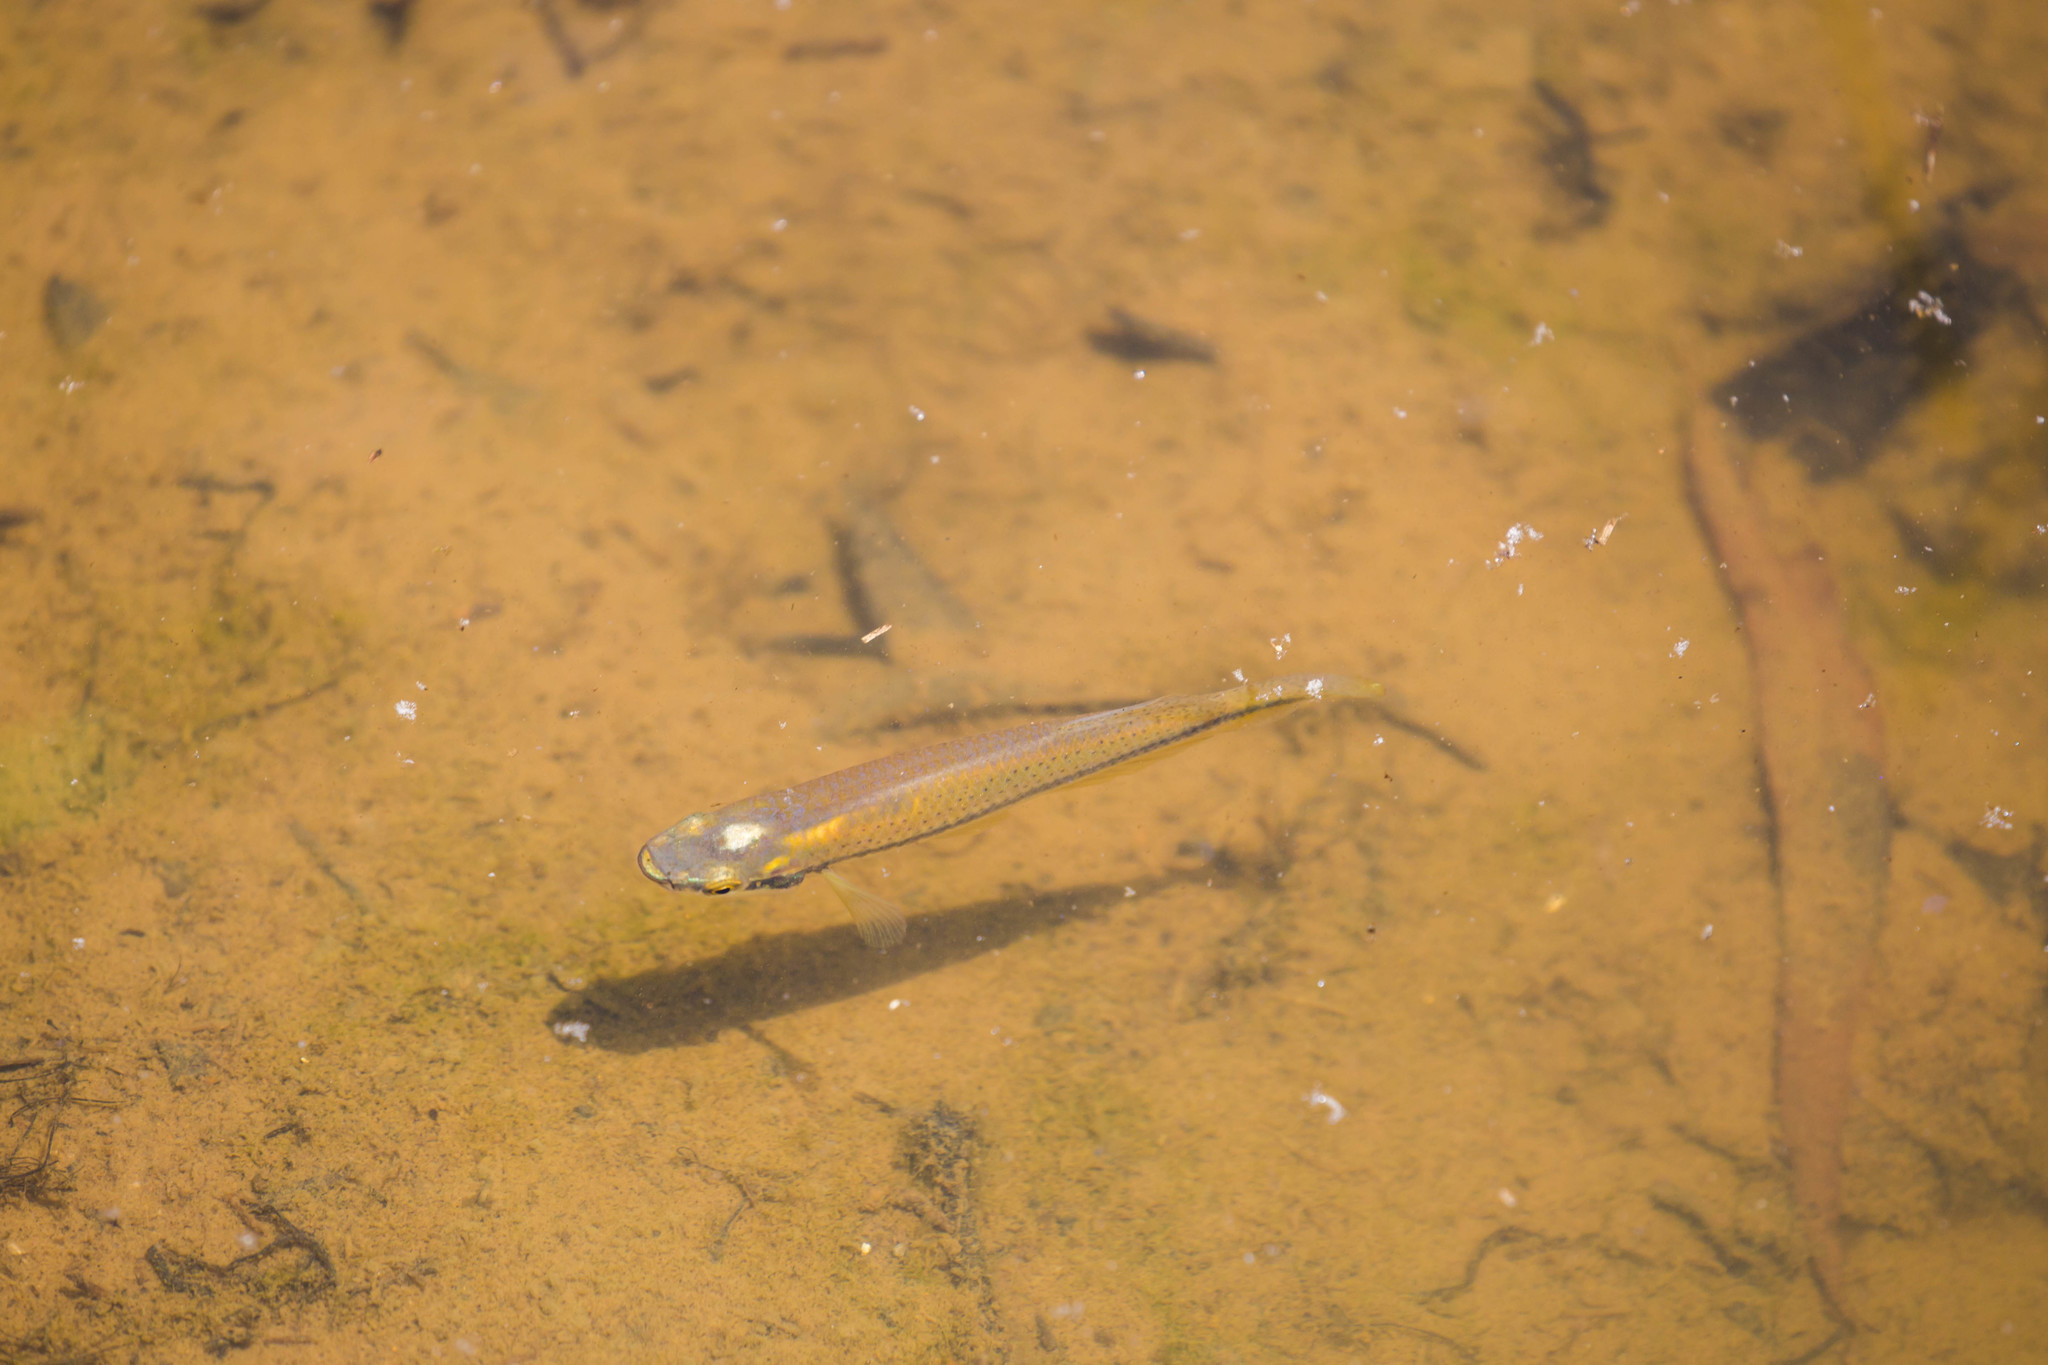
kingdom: Animalia
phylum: Chordata
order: Cyprinodontiformes
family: Fundulidae
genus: Fundulus
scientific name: Fundulus notatus
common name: Blackstripe topminnow
